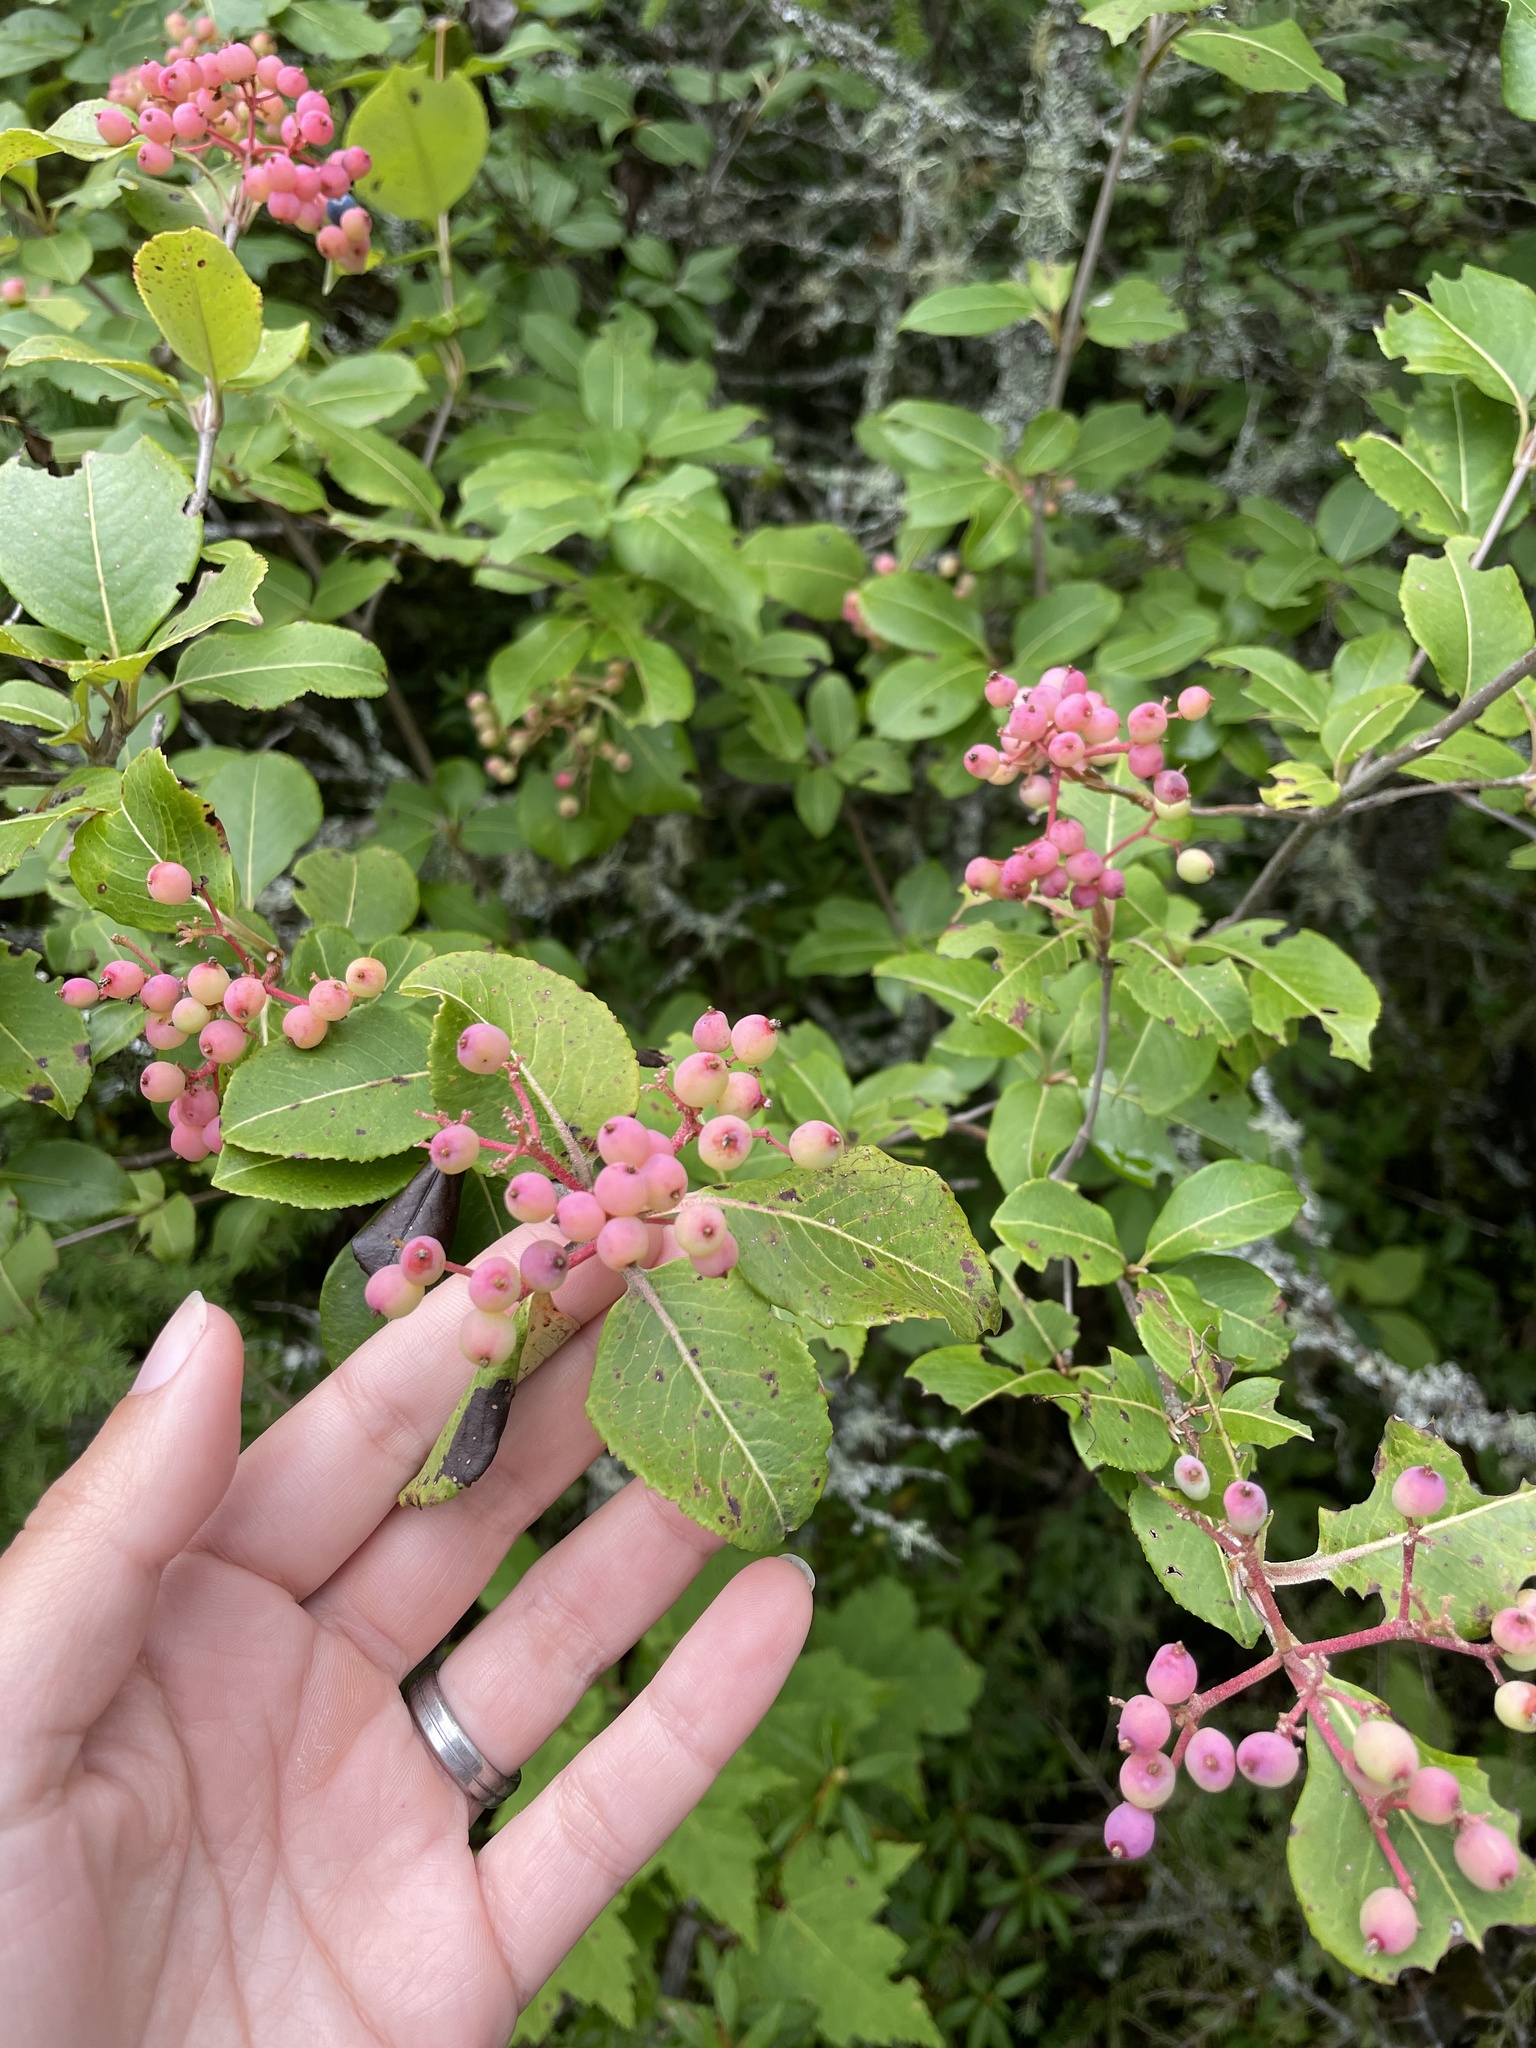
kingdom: Plantae
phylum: Tracheophyta
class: Magnoliopsida
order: Dipsacales
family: Viburnaceae
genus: Viburnum
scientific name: Viburnum cassinoides
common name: Swamp haw
